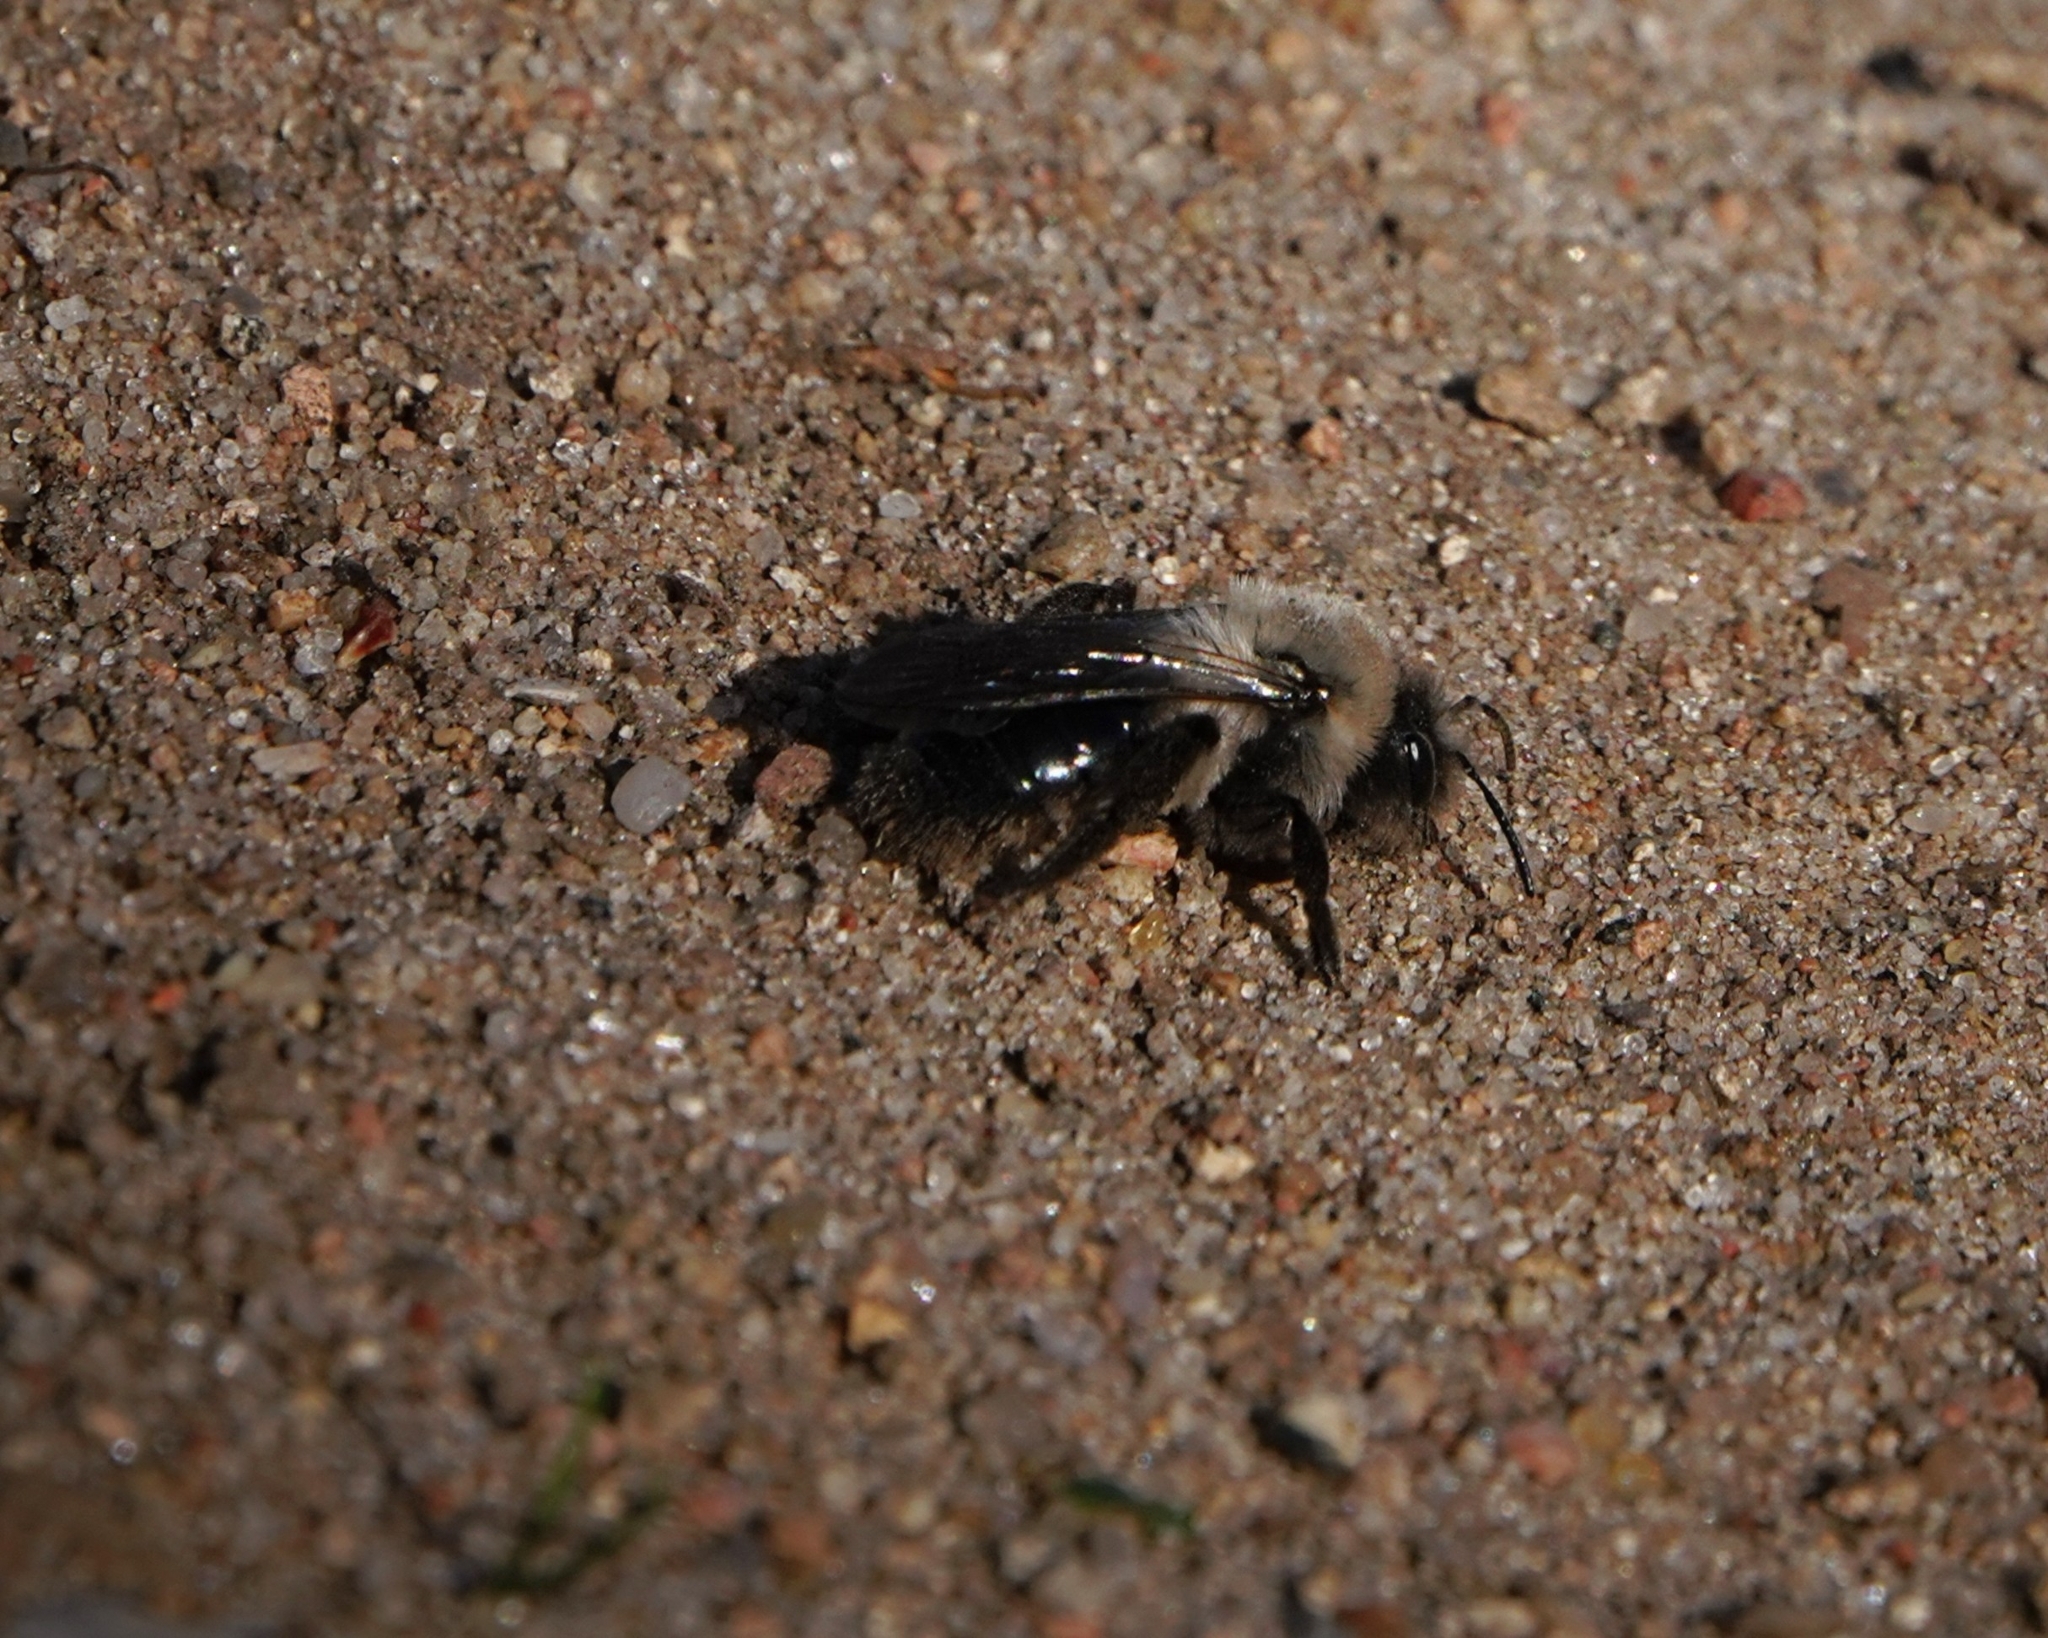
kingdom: Animalia
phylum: Arthropoda
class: Insecta
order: Hymenoptera
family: Andrenidae
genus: Andrena
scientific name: Andrena vaga
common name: Grey-backed mining bee
